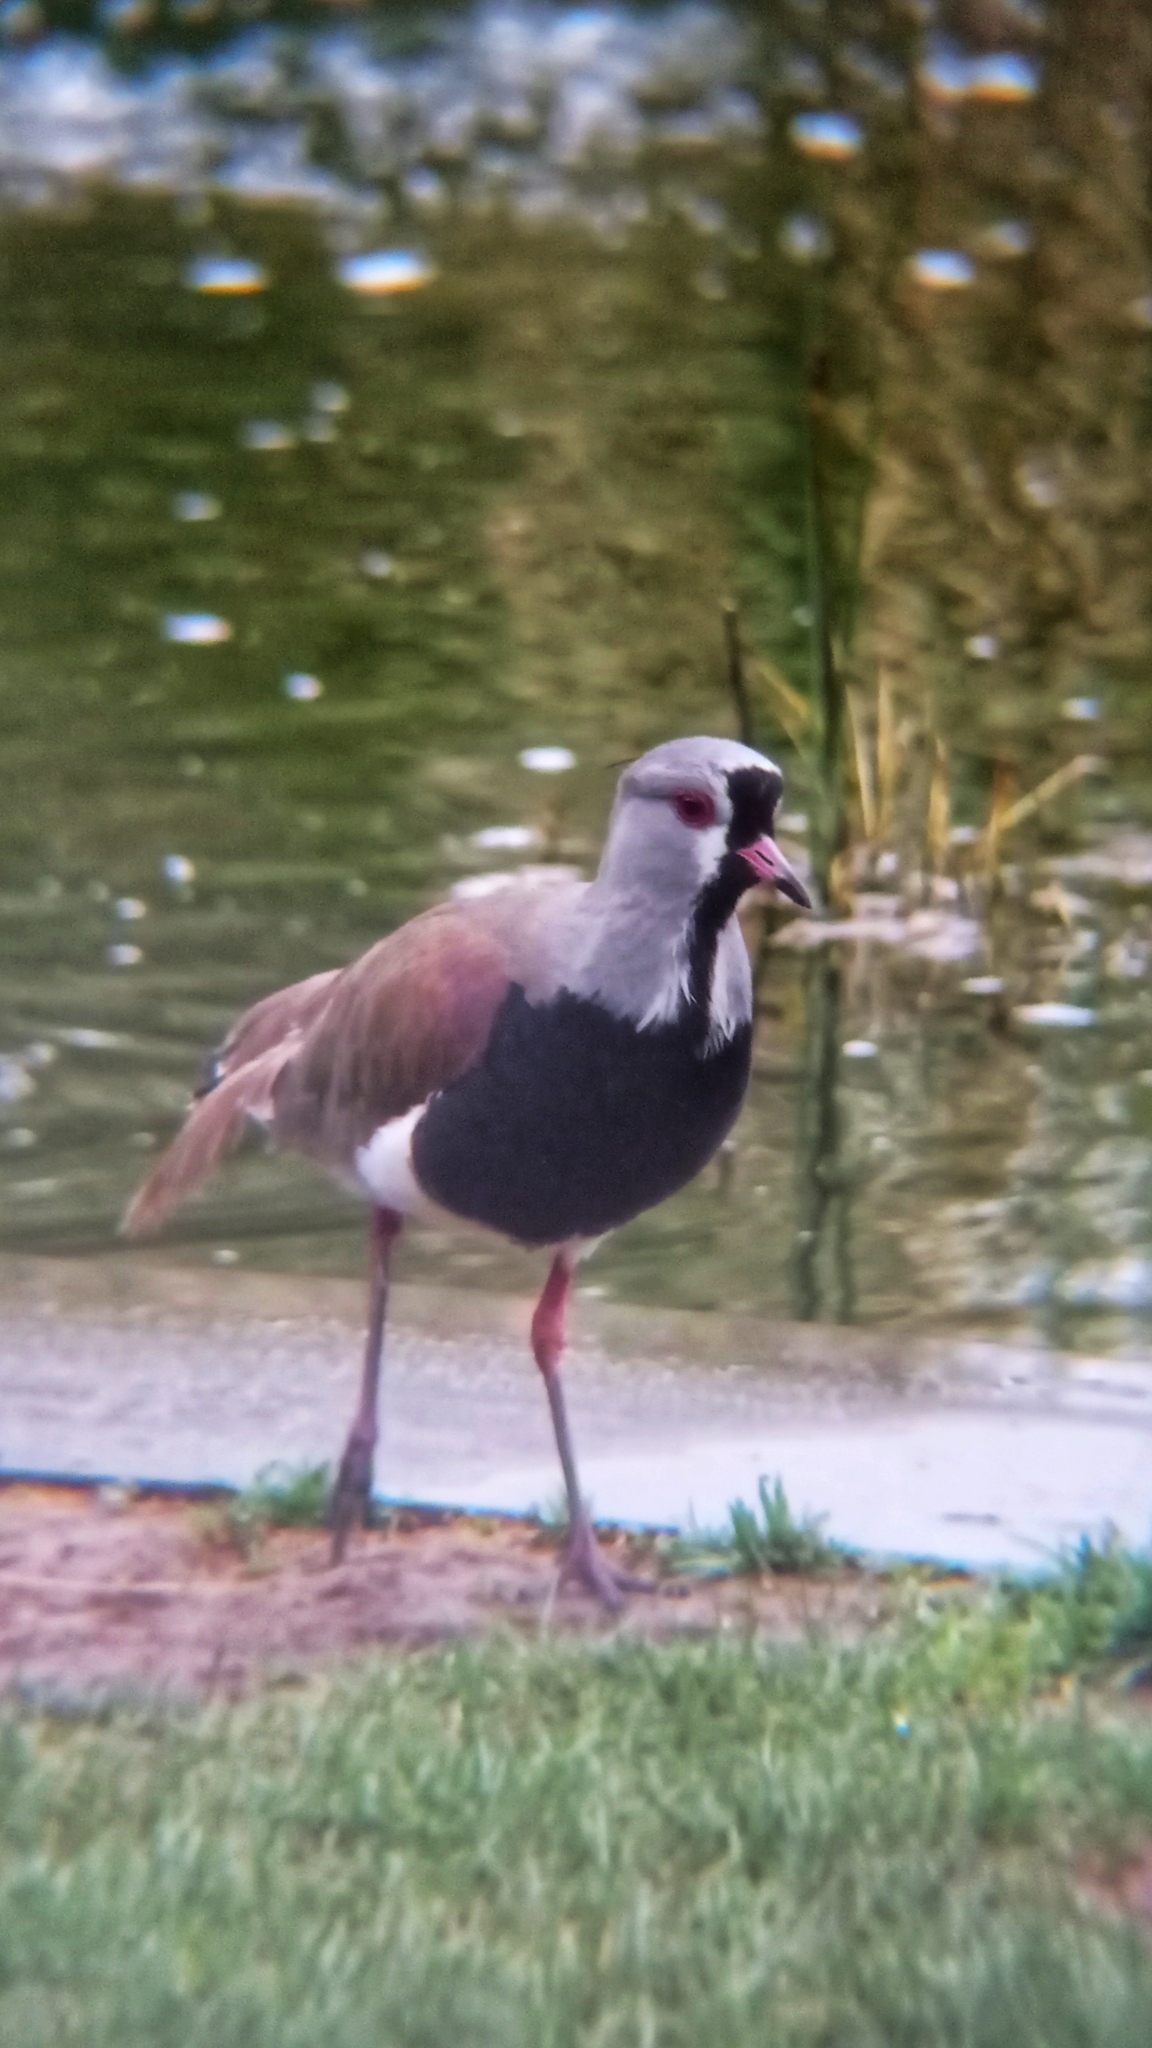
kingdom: Animalia
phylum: Chordata
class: Aves
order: Charadriiformes
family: Charadriidae
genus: Vanellus
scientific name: Vanellus chilensis
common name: Southern lapwing
